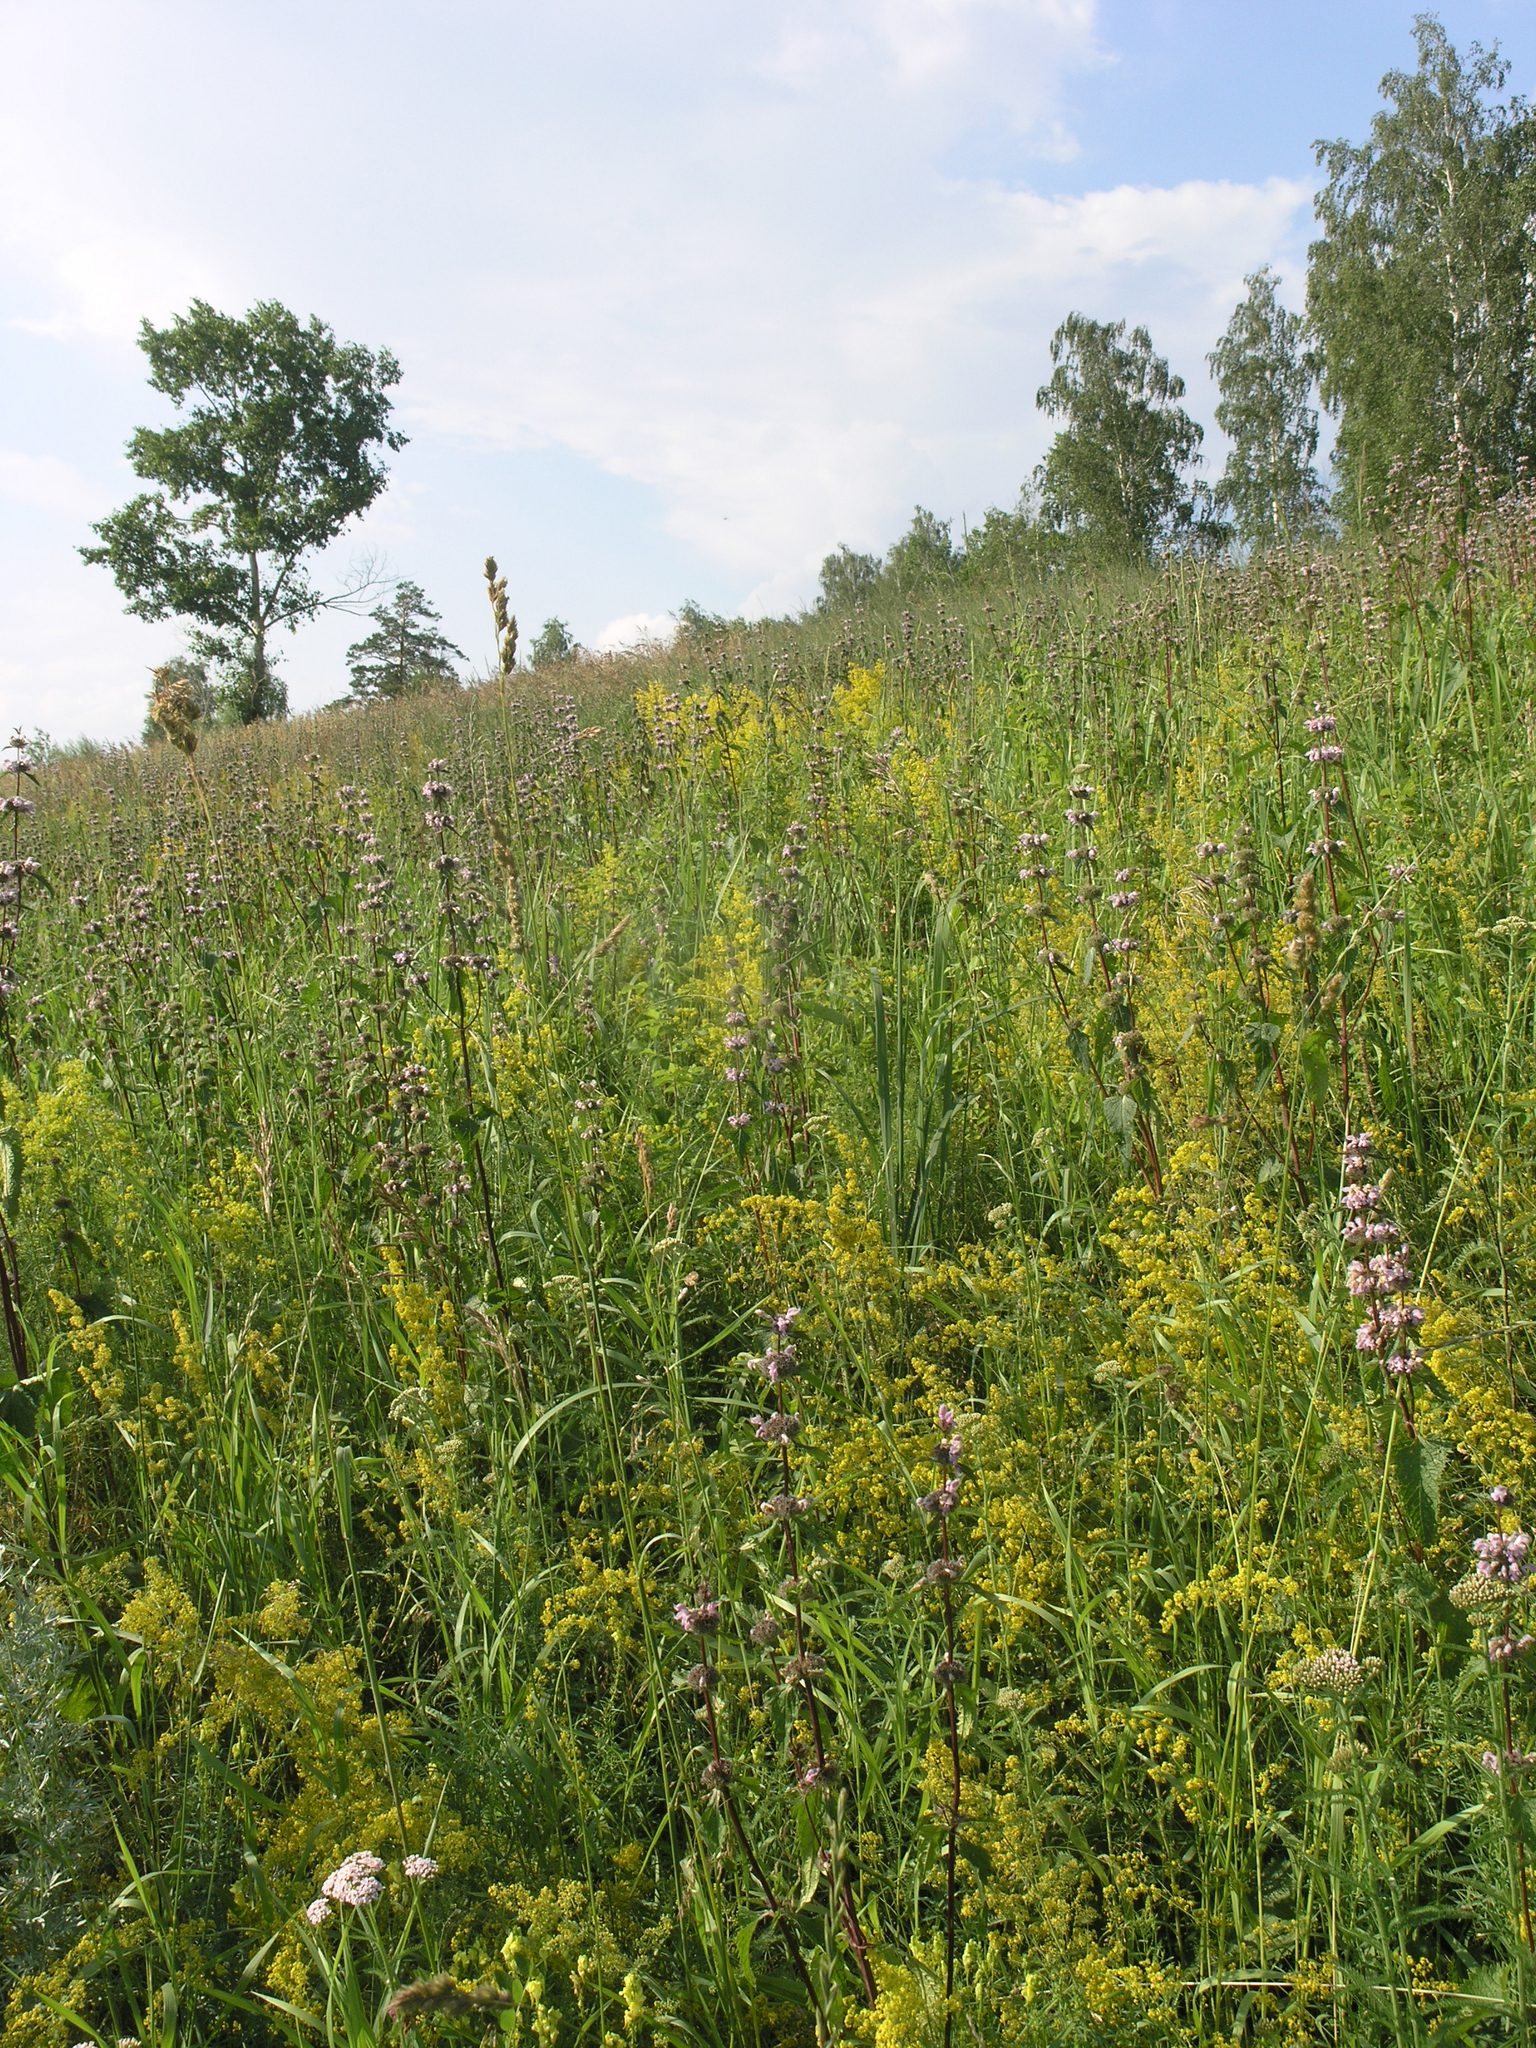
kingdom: Plantae
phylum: Tracheophyta
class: Magnoliopsida
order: Gentianales
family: Rubiaceae
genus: Galium
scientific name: Galium verum
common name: Lady's bedstraw
